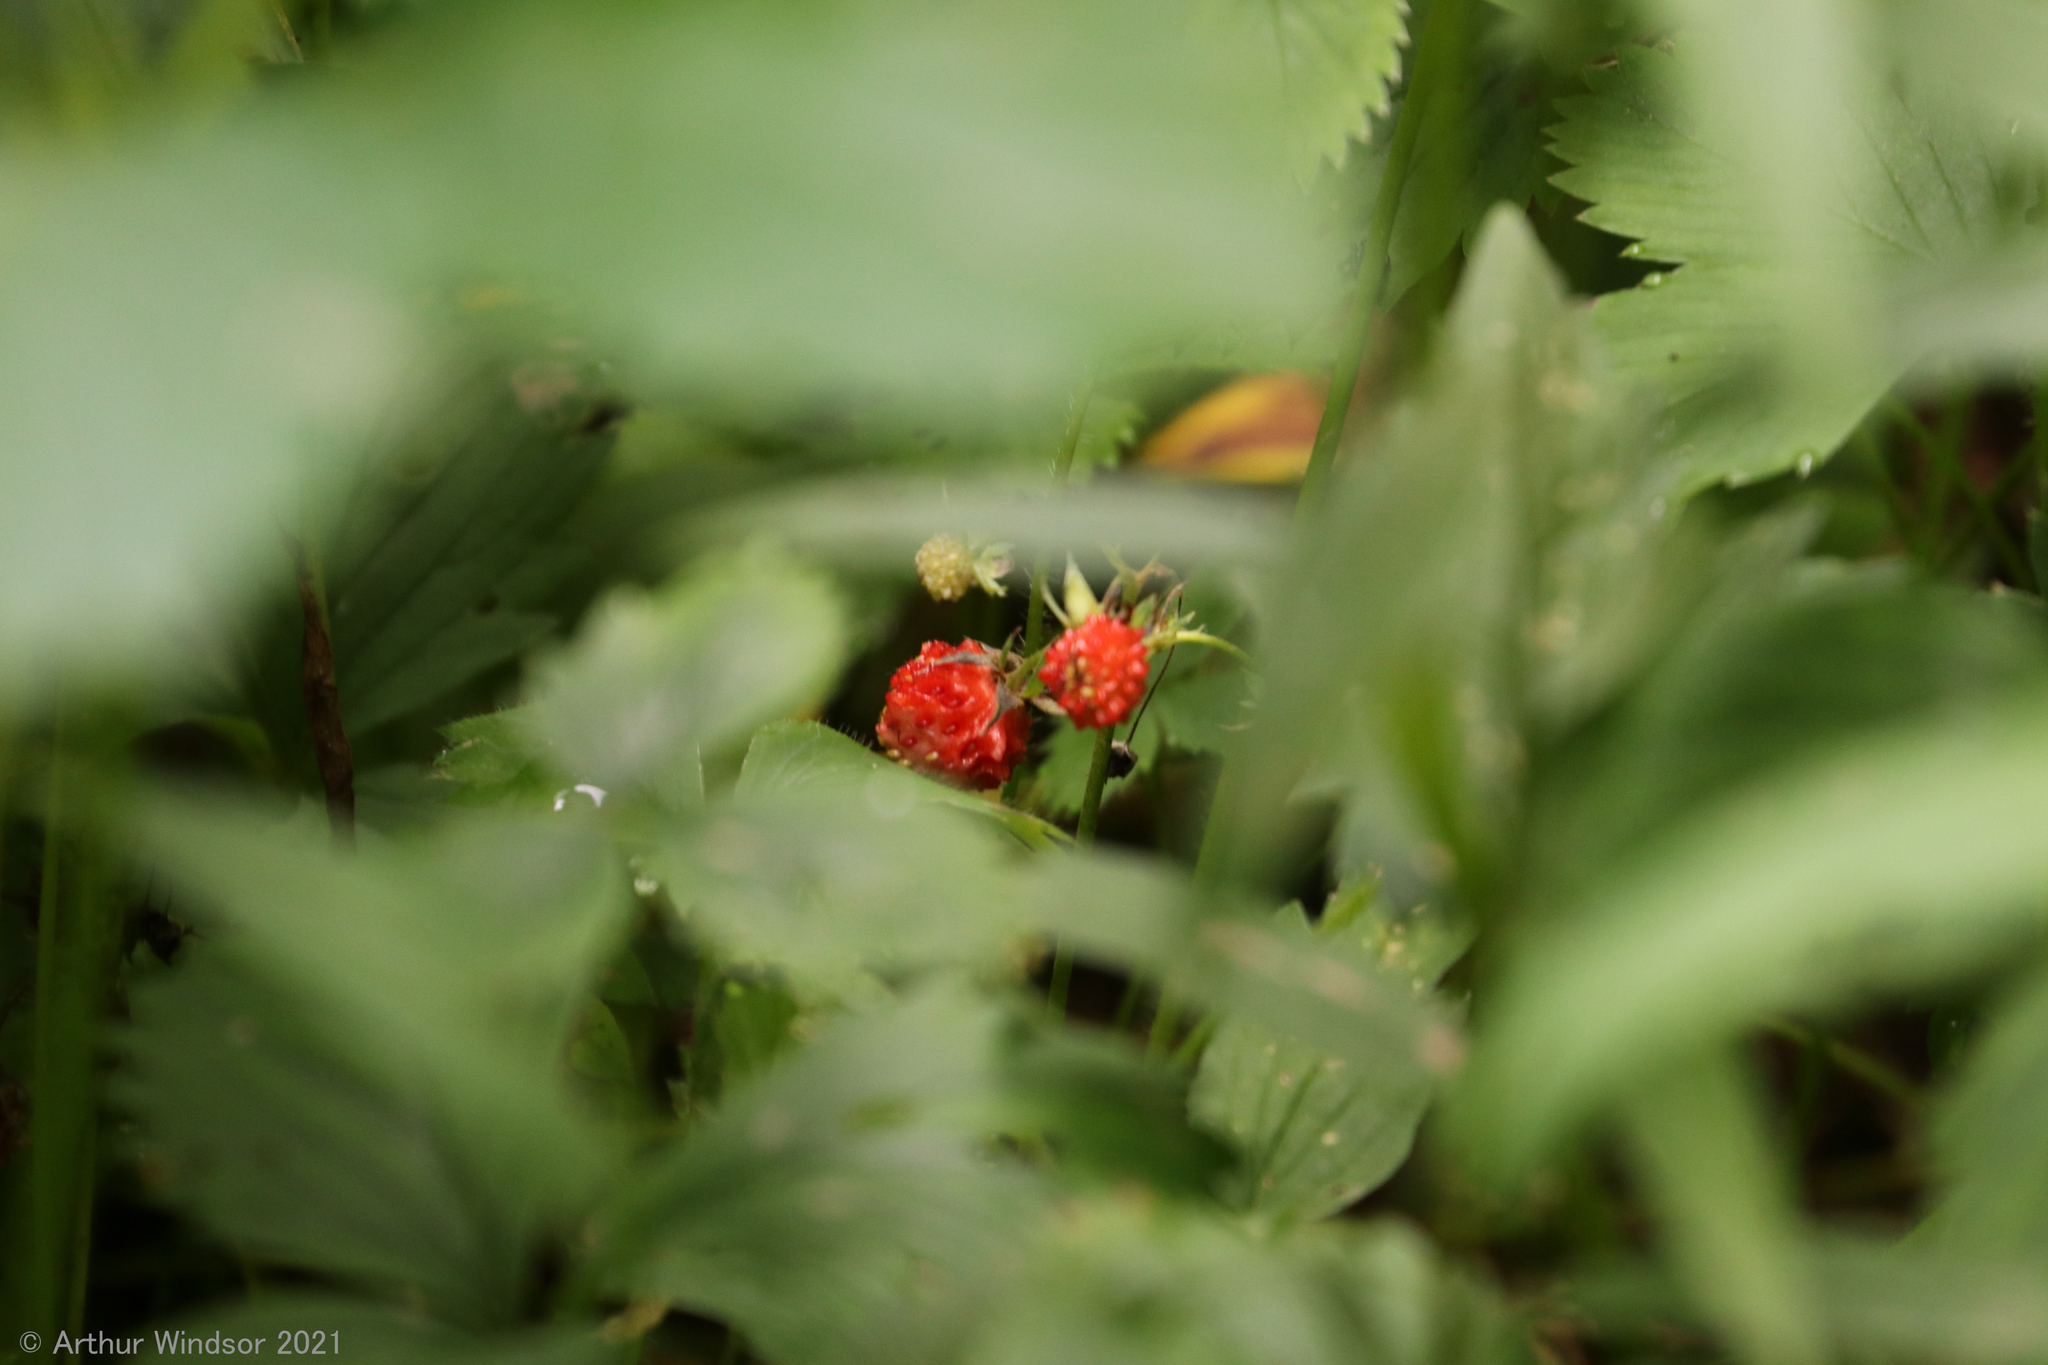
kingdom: Plantae
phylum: Tracheophyta
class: Magnoliopsida
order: Rosales
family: Rosaceae
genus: Fragaria
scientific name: Fragaria vesca
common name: Wild strawberry
